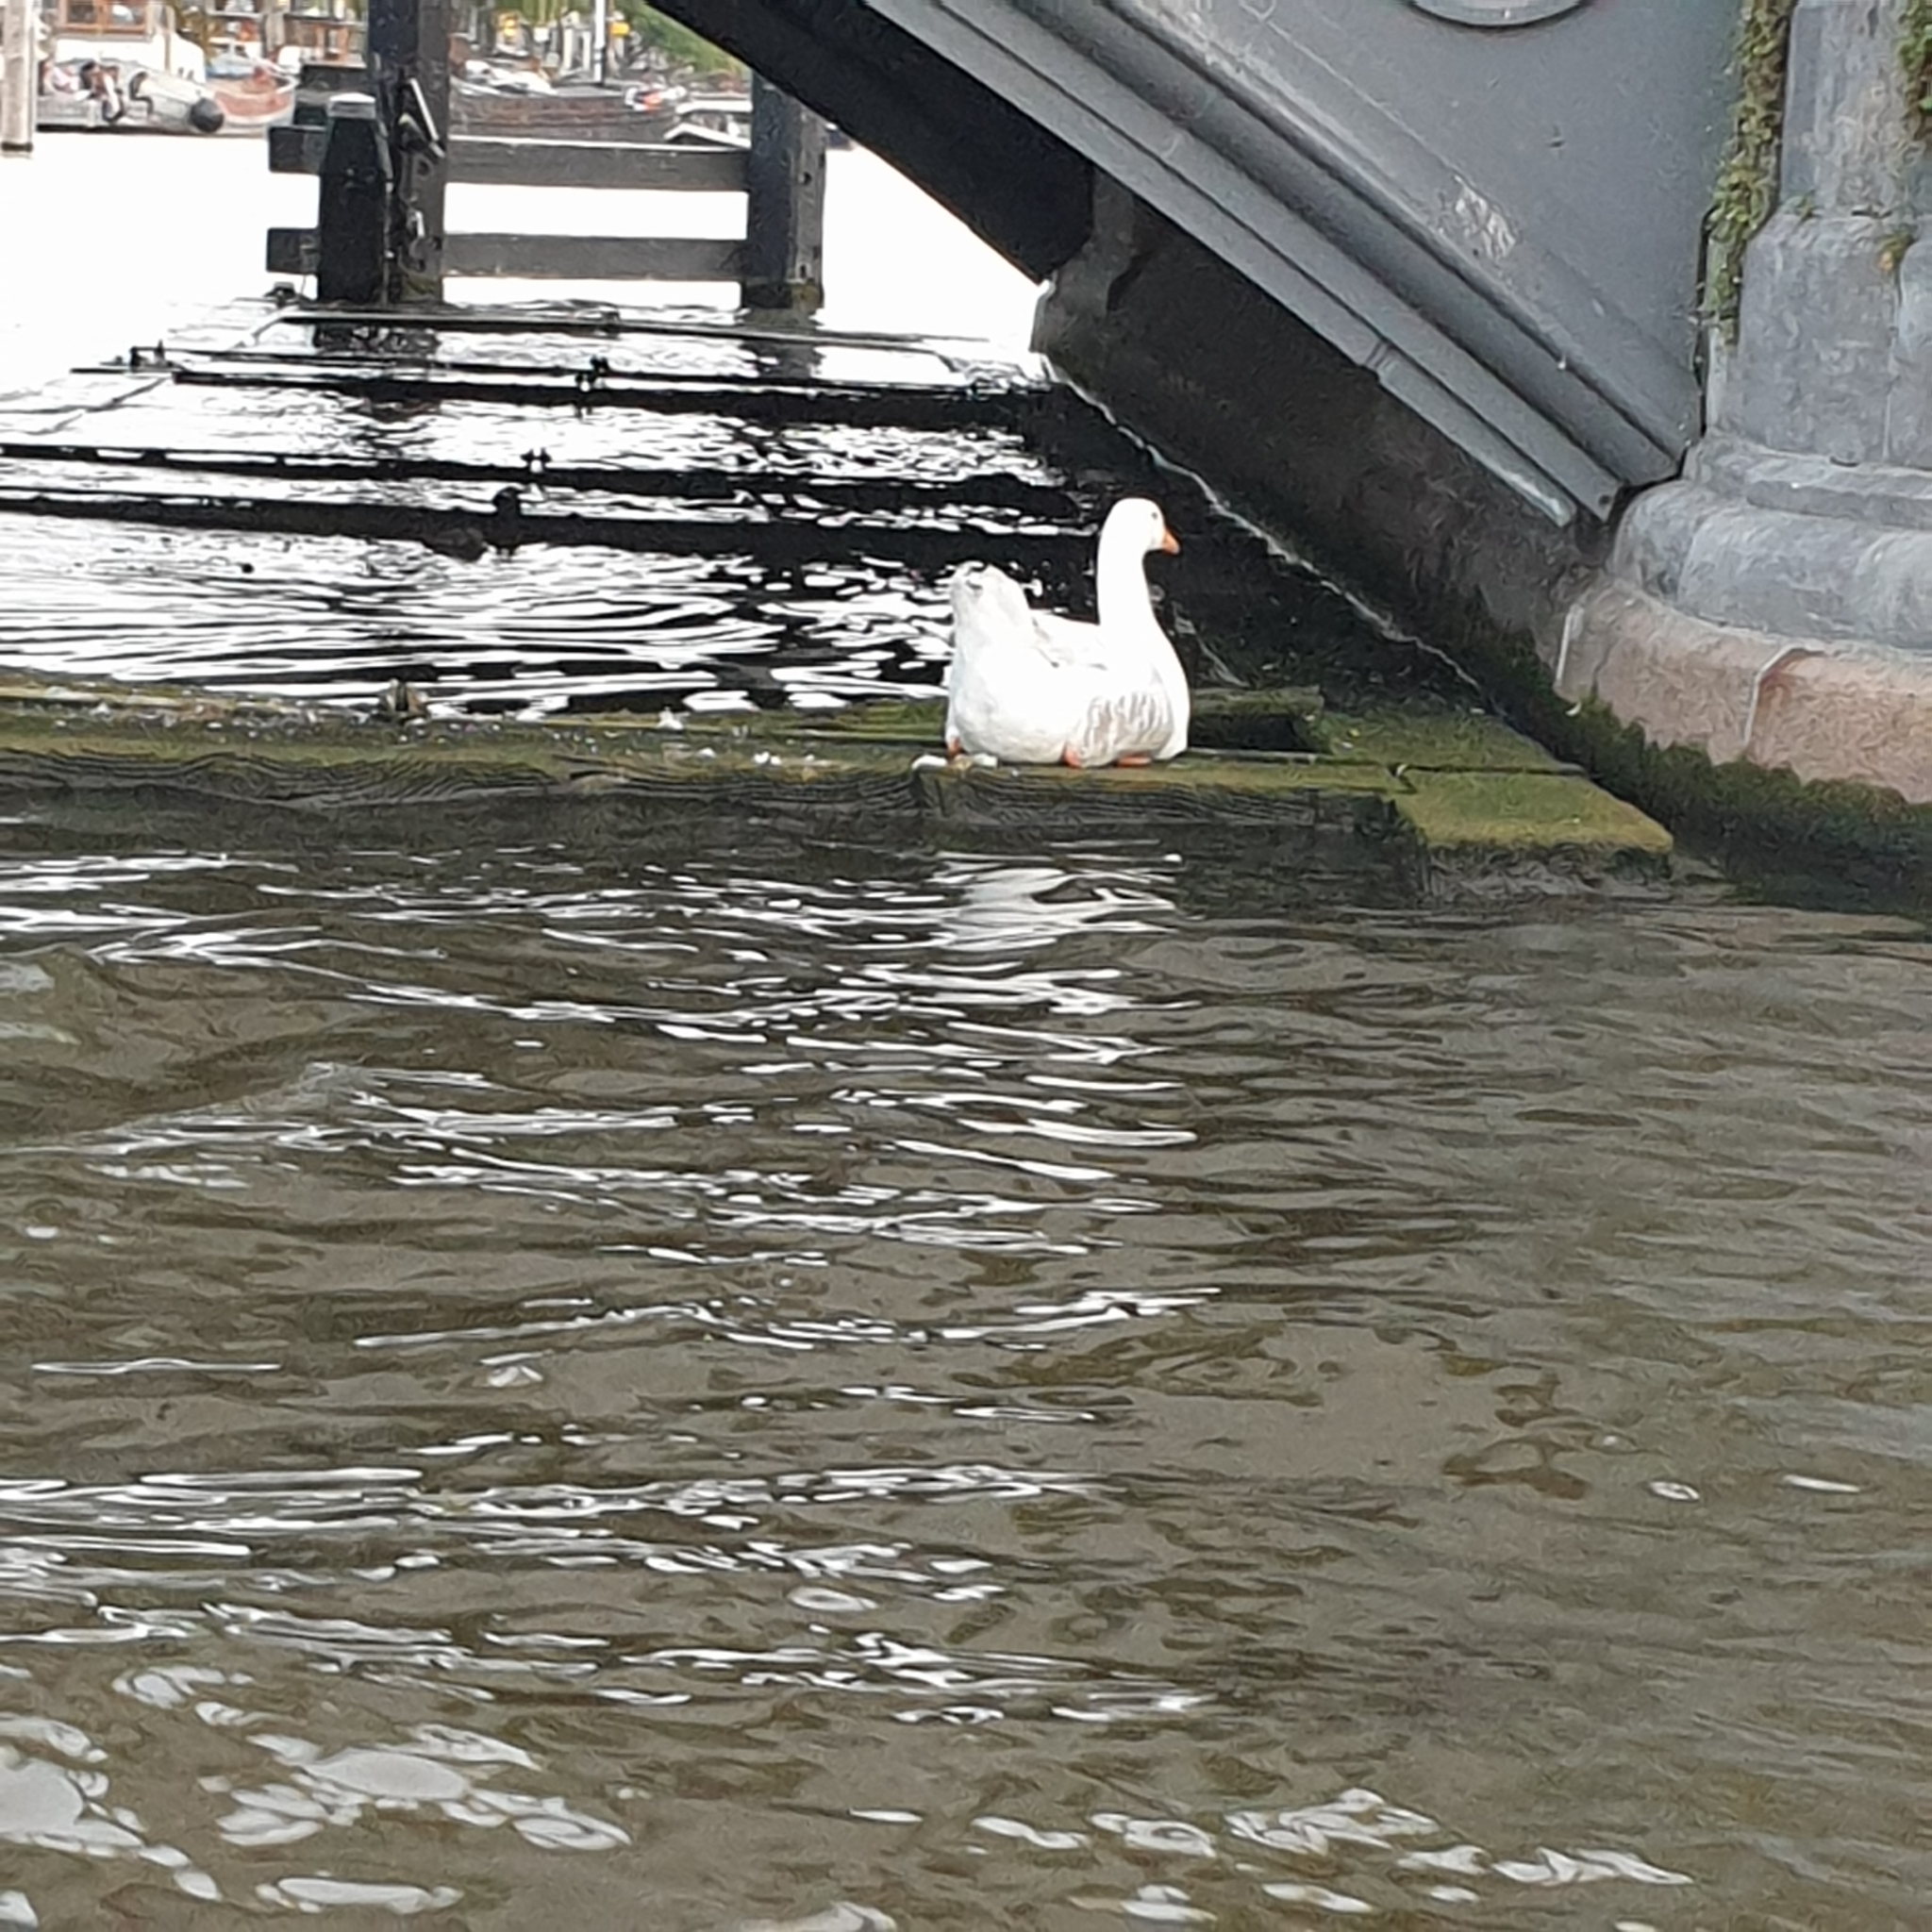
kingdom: Animalia
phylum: Chordata
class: Aves
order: Anseriformes
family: Anatidae
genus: Anser
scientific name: Anser anser
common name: Greylag goose
